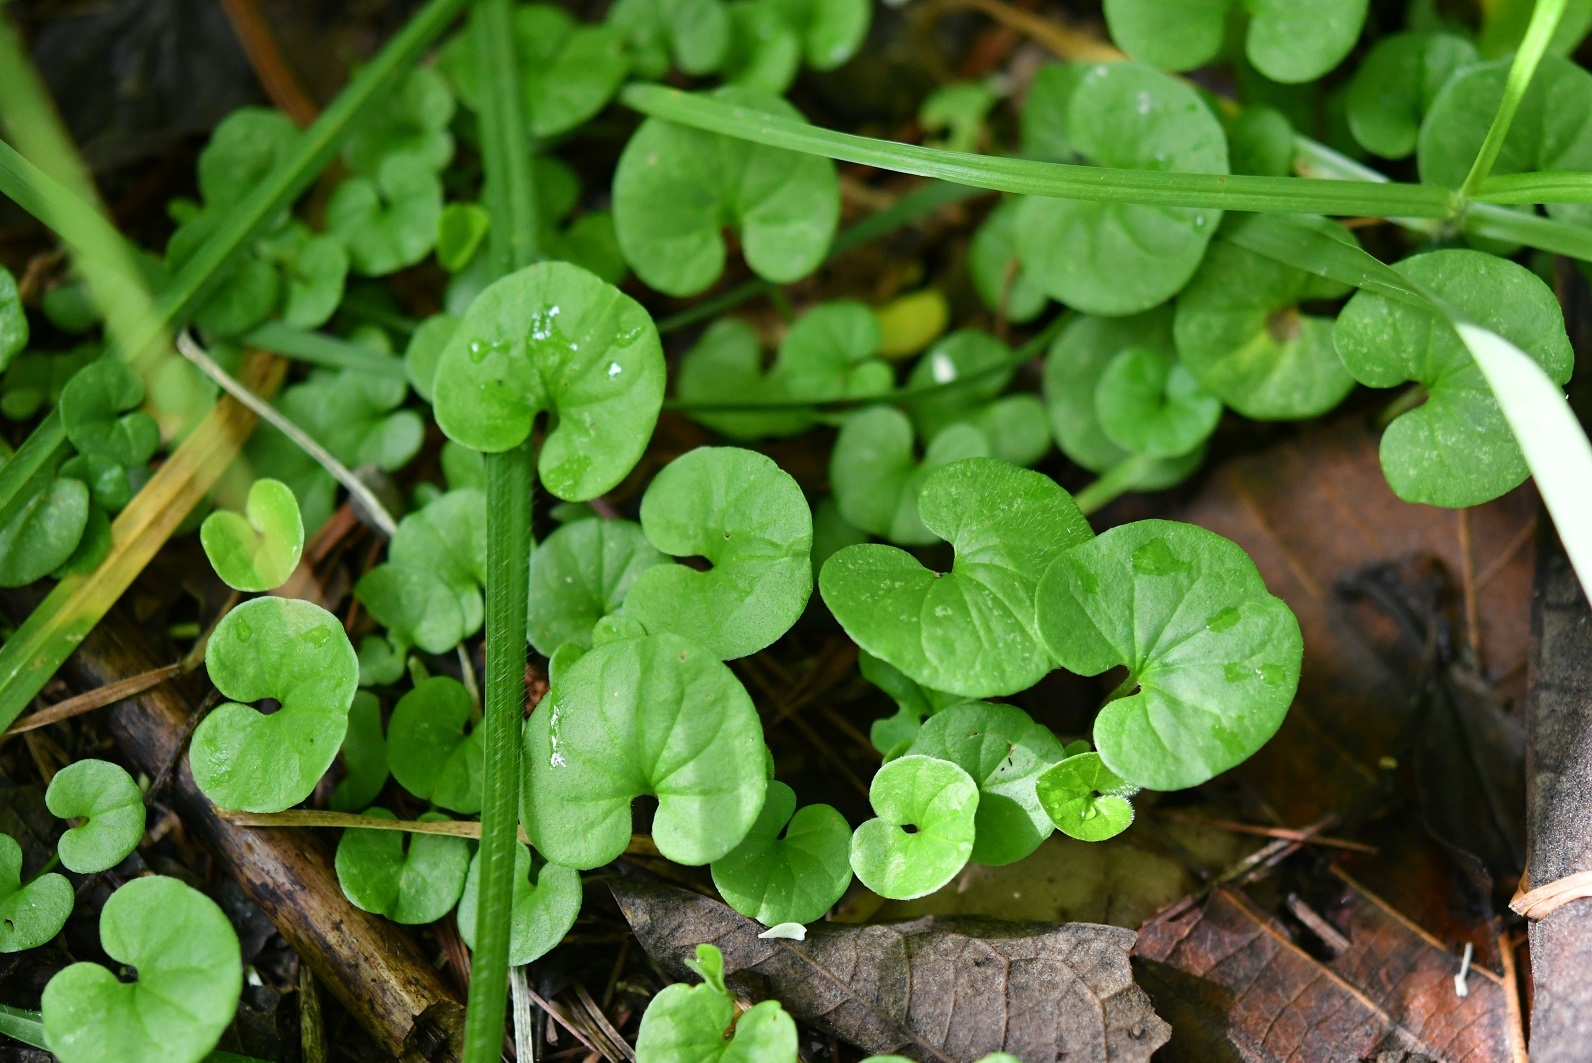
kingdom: Plantae
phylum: Tracheophyta
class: Magnoliopsida
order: Solanales
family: Convolvulaceae
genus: Dichondra
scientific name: Dichondra sericea
